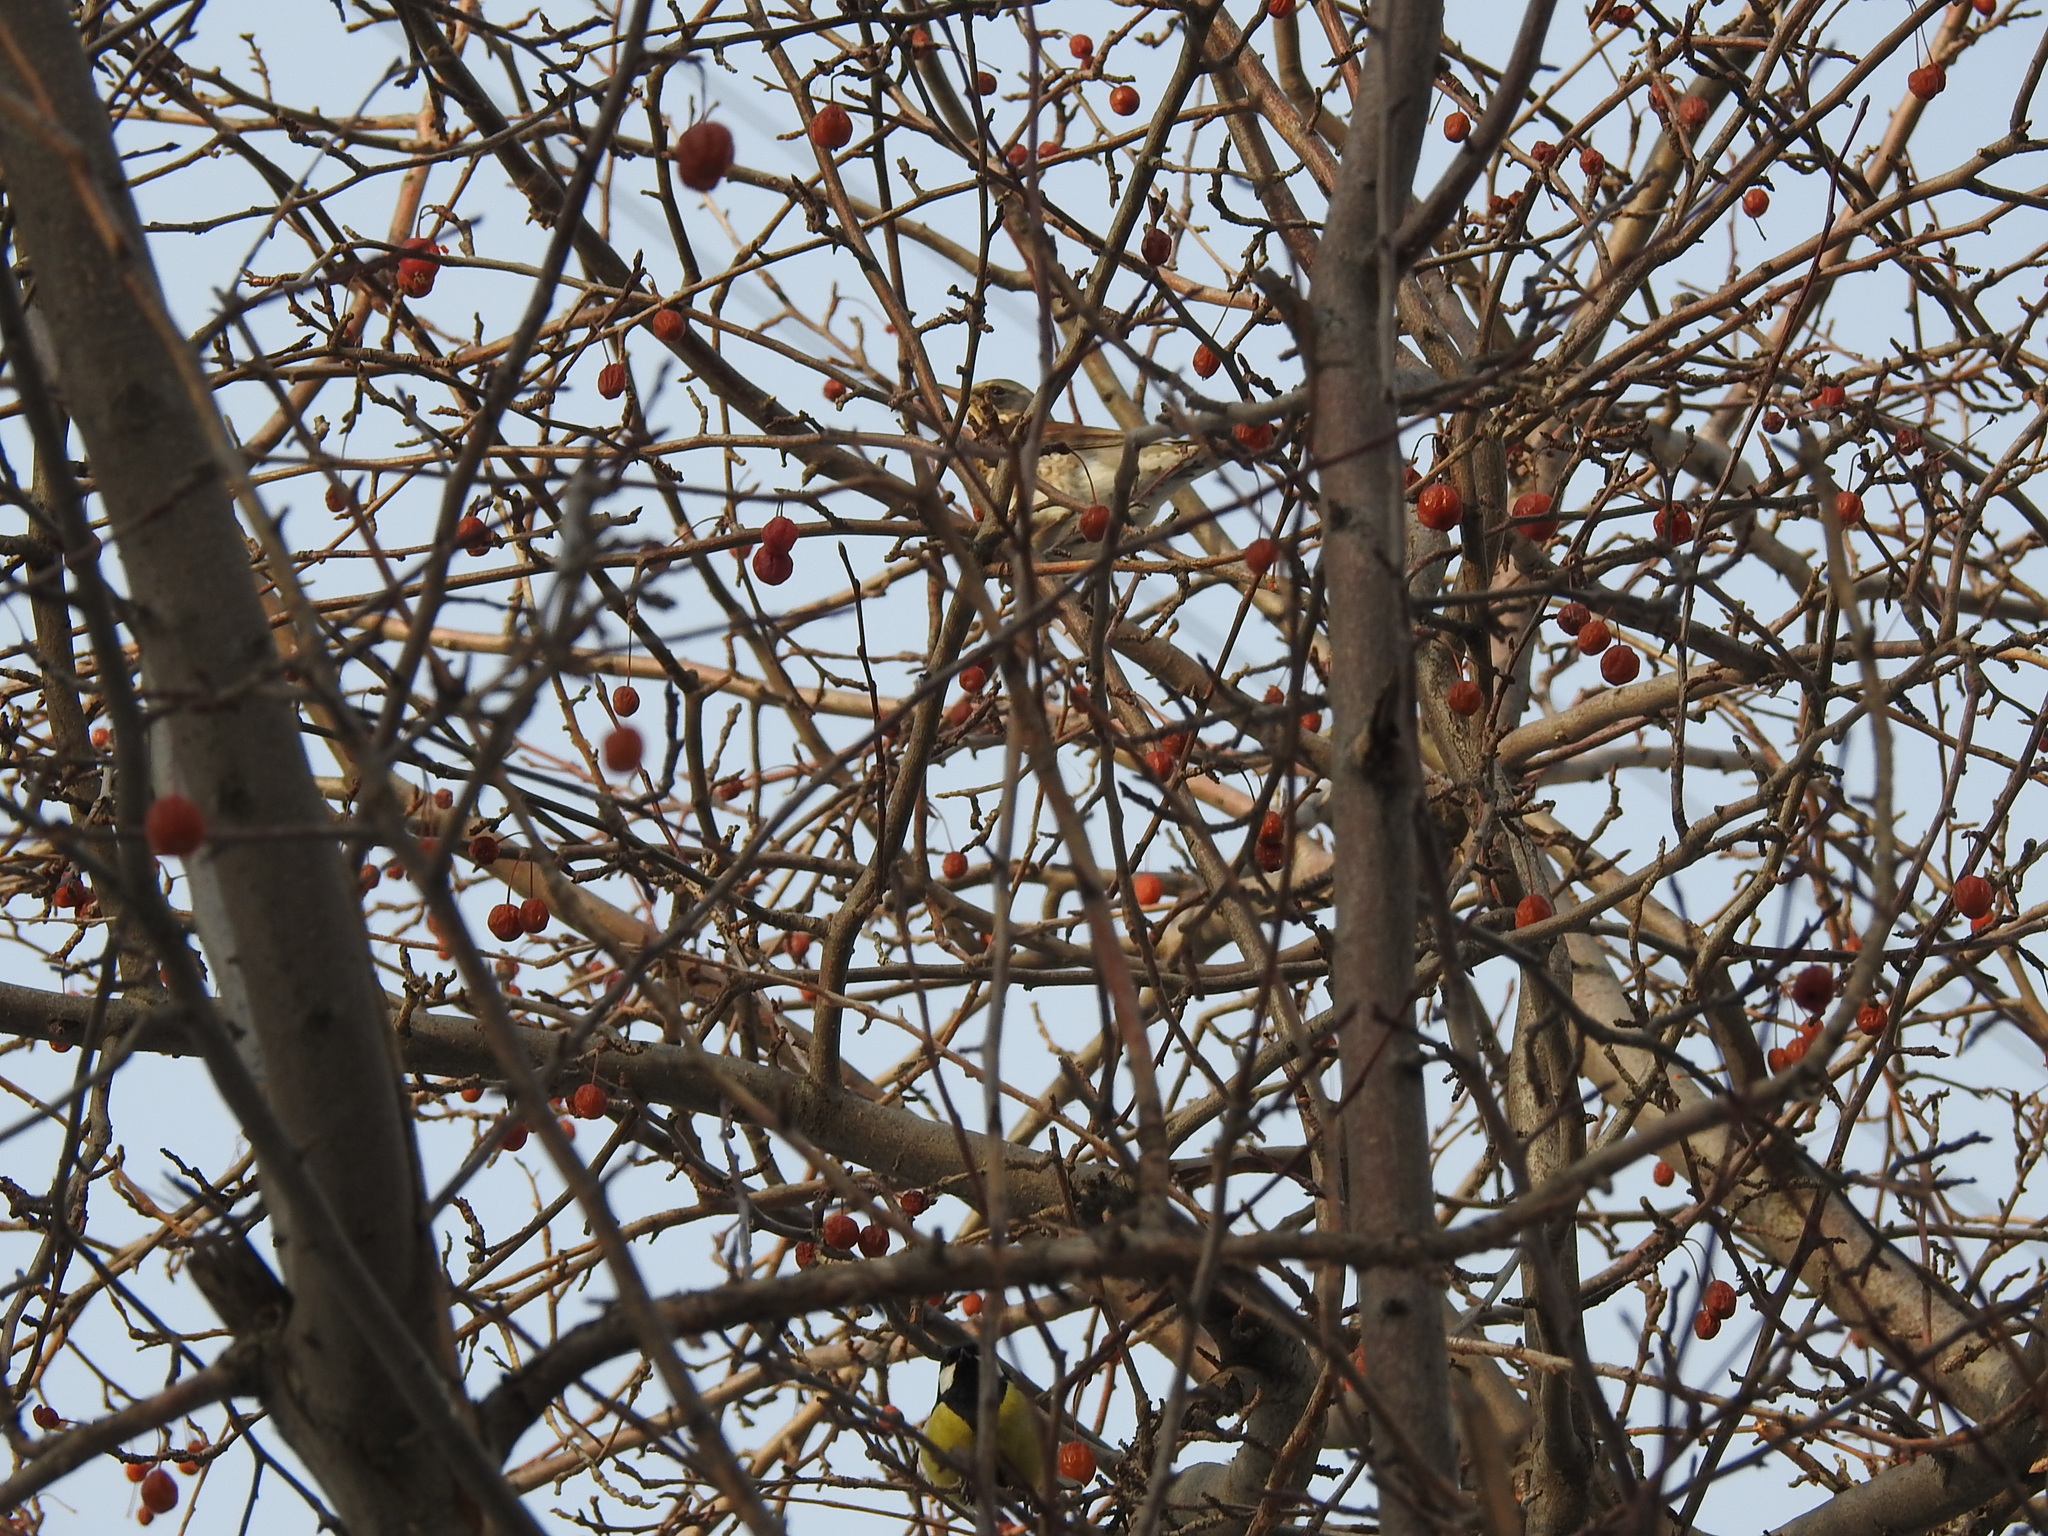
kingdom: Animalia
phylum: Chordata
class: Aves
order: Passeriformes
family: Turdidae
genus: Turdus
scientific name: Turdus pilaris
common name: Fieldfare
